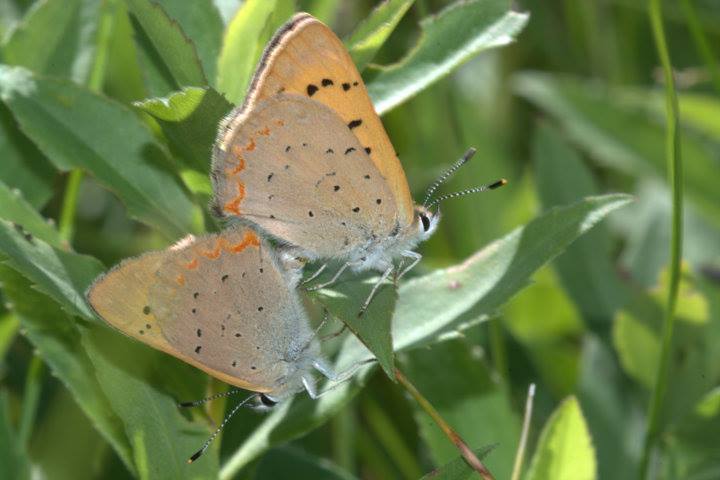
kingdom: Animalia
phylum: Arthropoda
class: Insecta
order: Lepidoptera
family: Lycaenidae
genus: Tharsalea
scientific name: Tharsalea helloides
